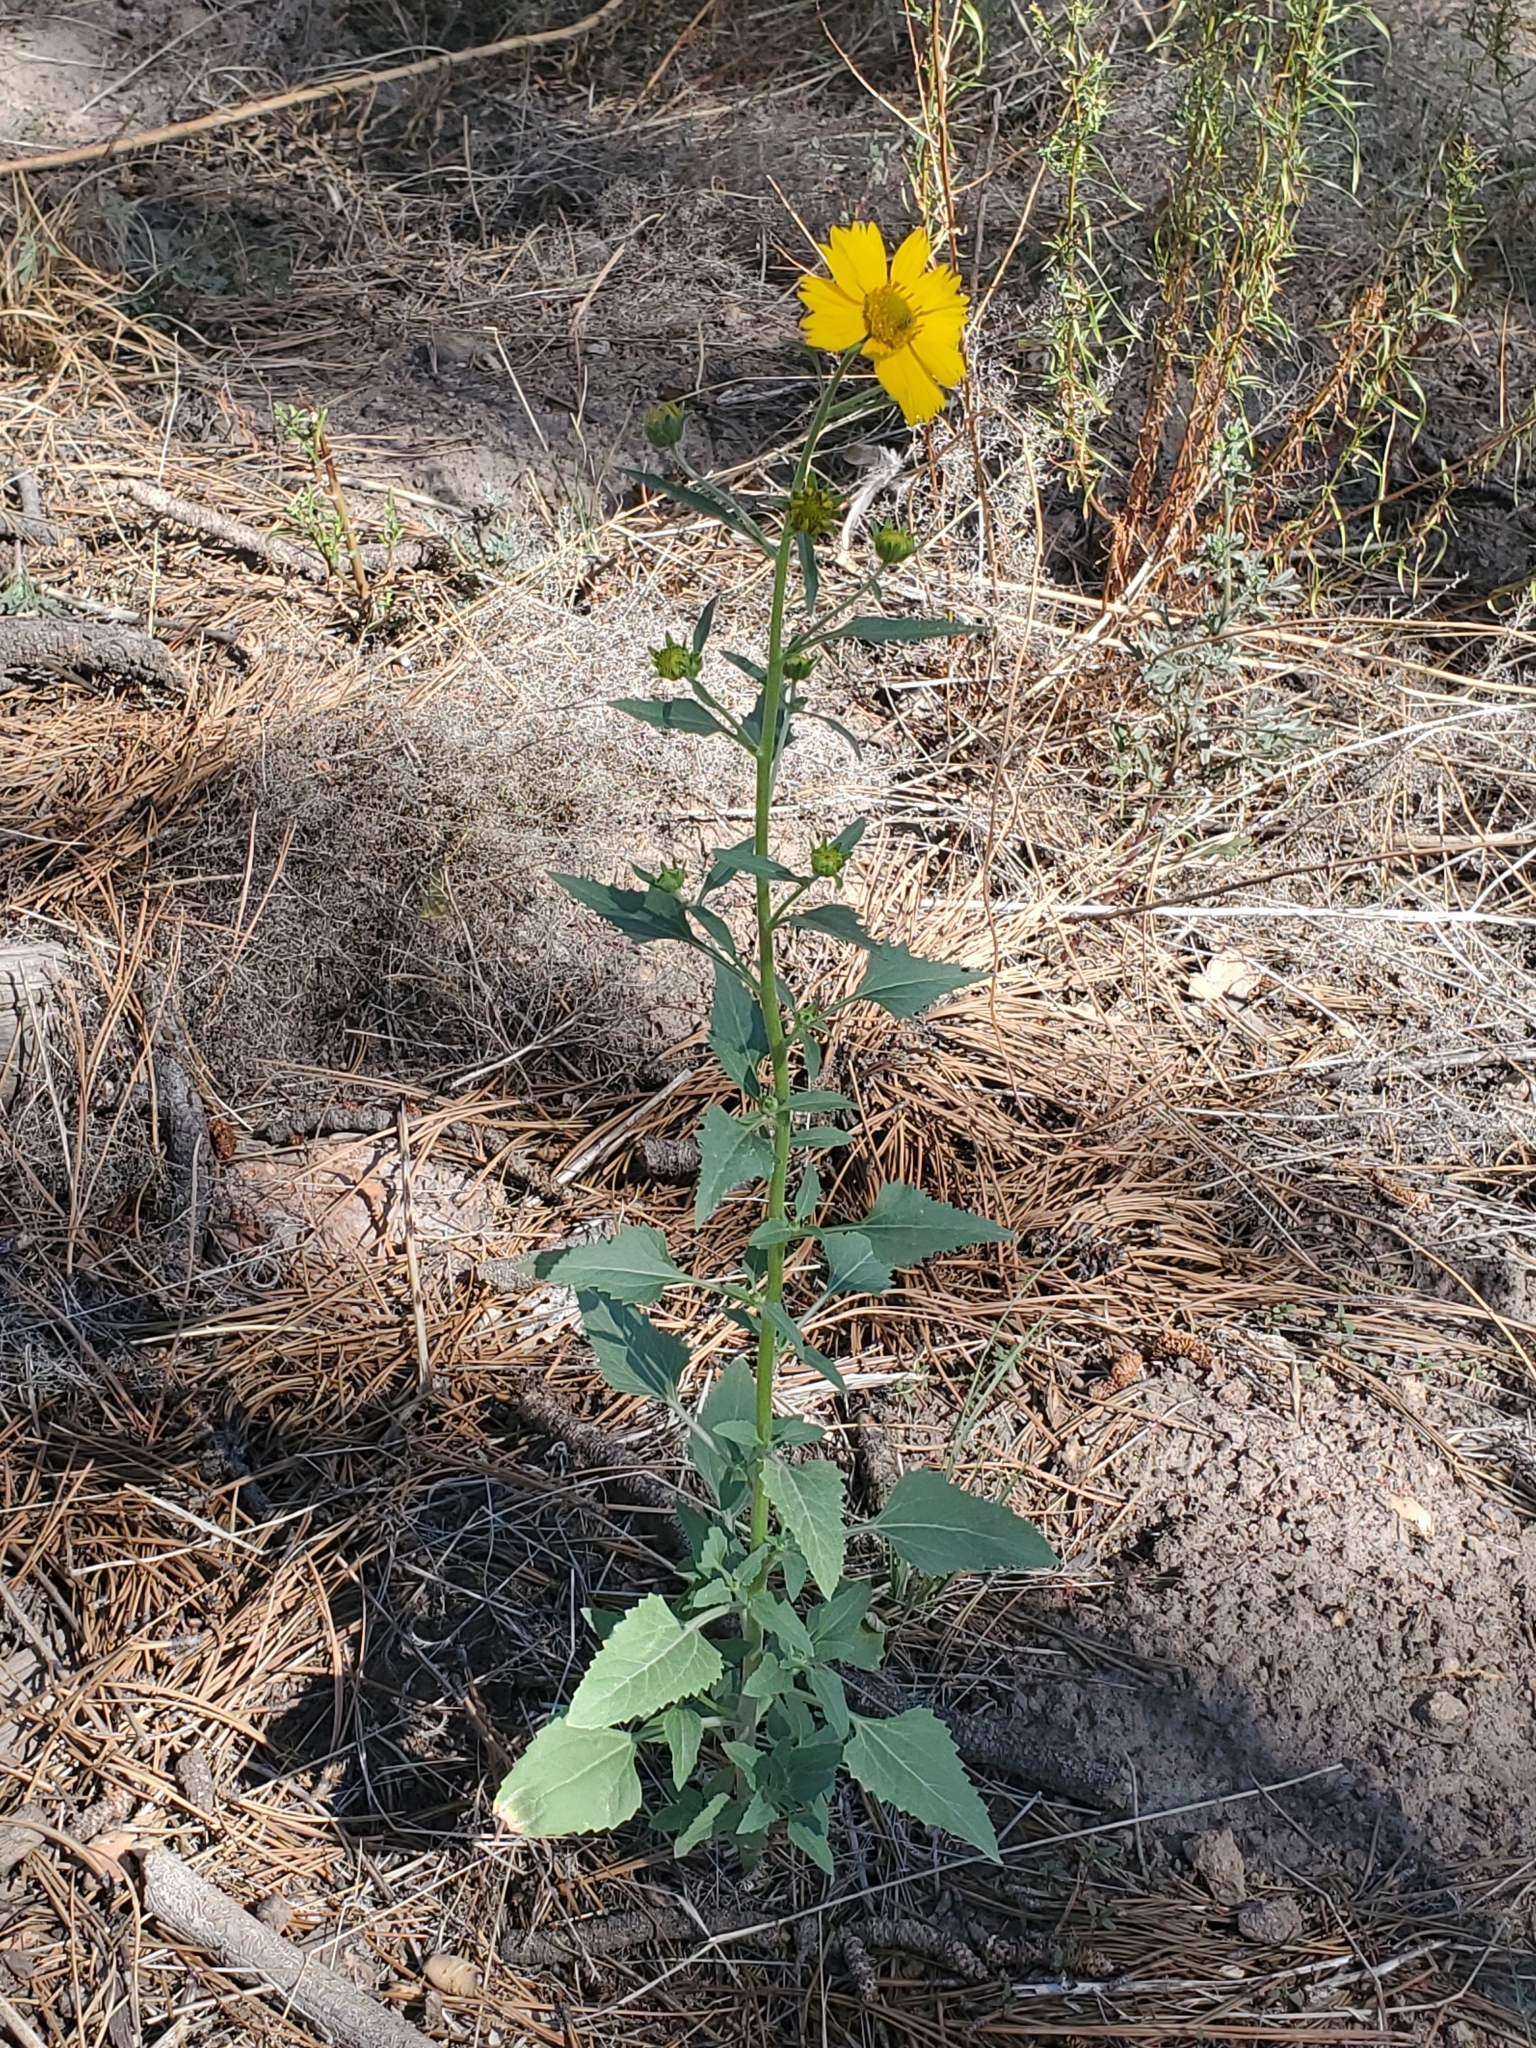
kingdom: Plantae
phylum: Tracheophyta
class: Magnoliopsida
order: Asterales
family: Asteraceae
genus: Verbesina
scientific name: Verbesina encelioides
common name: Golden crownbeard
